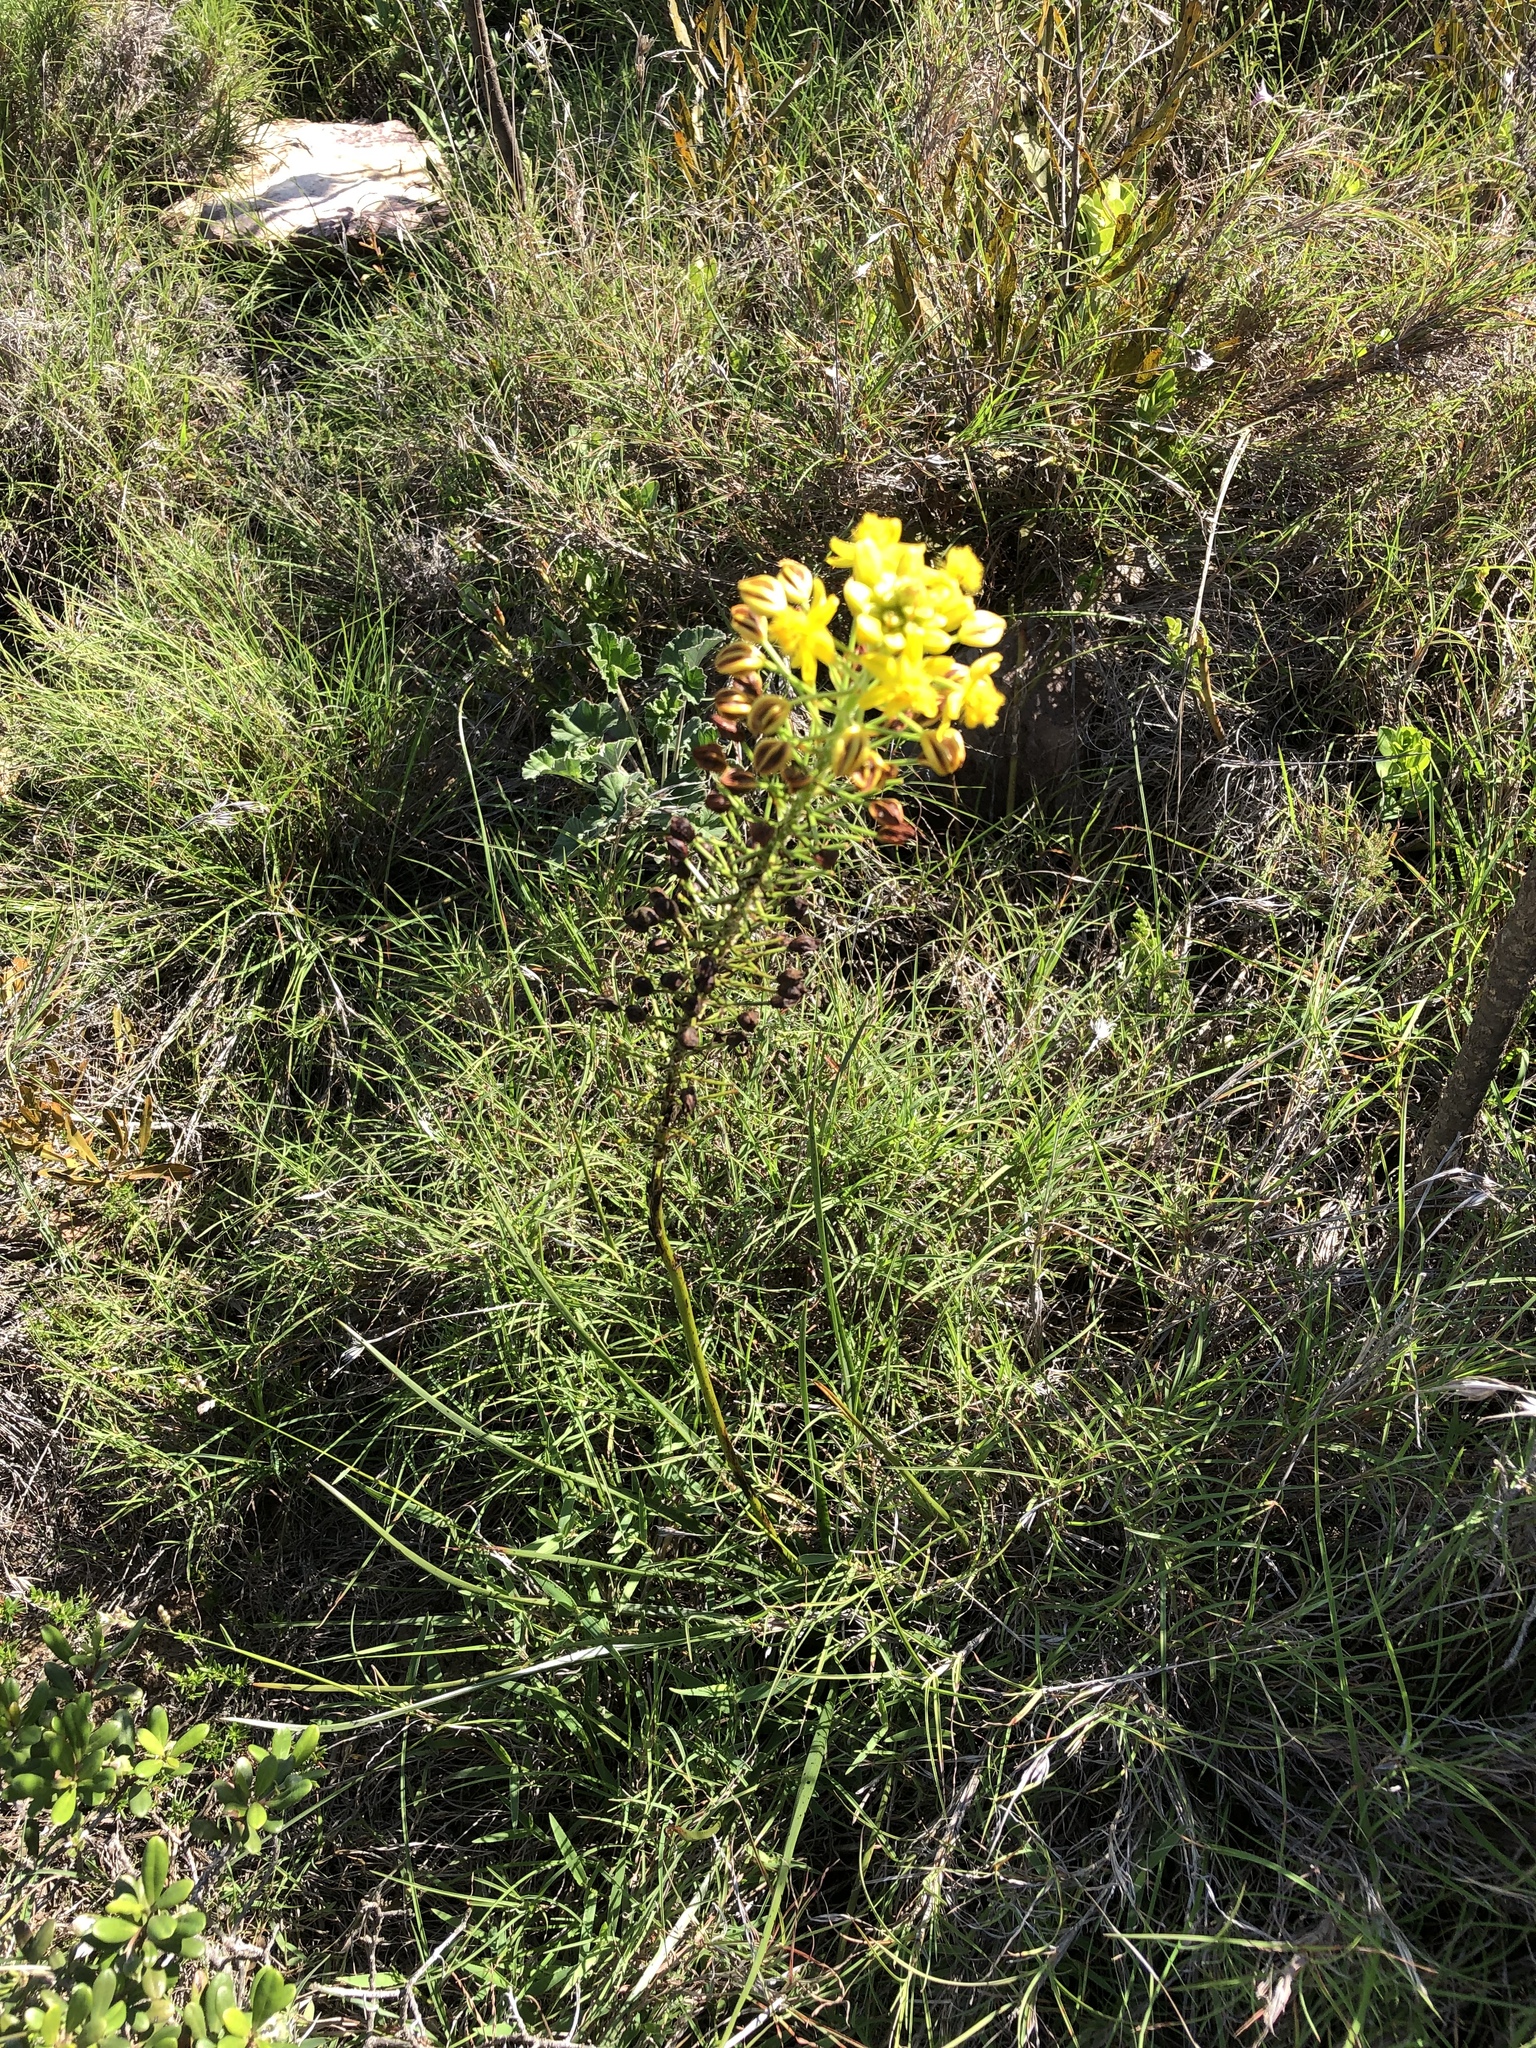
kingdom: Plantae
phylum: Tracheophyta
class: Liliopsida
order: Asparagales
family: Asphodelaceae
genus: Bulbine
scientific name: Bulbine abyssinica
